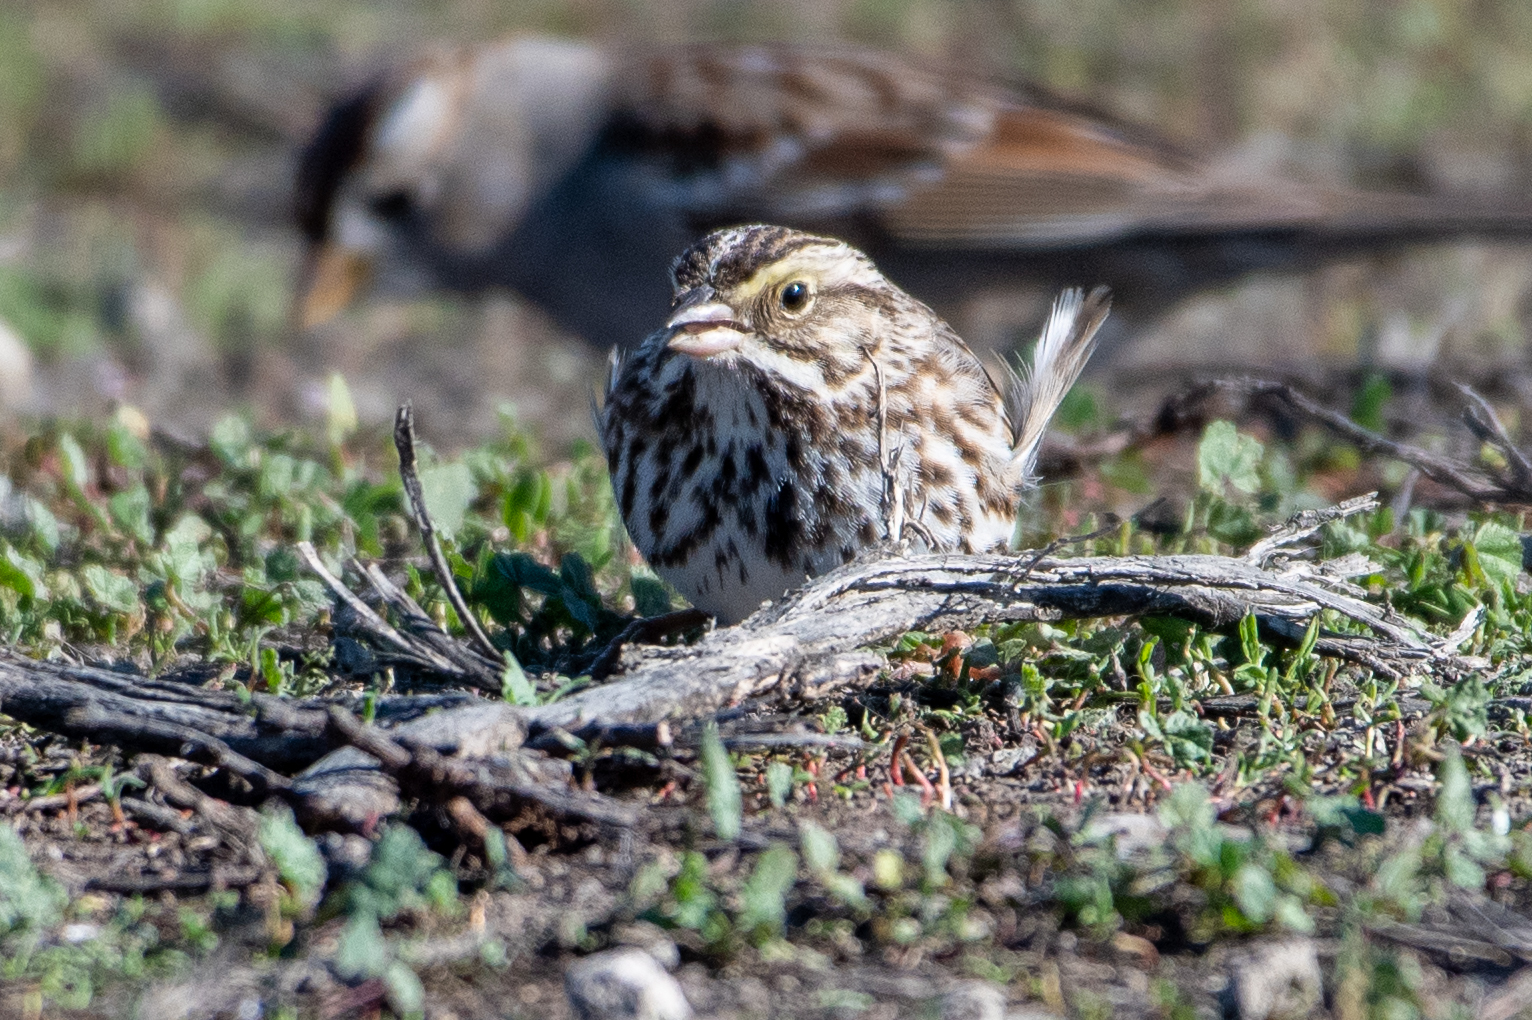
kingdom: Animalia
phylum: Chordata
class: Aves
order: Passeriformes
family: Passerellidae
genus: Passerculus
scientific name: Passerculus sandwichensis
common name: Savannah sparrow
